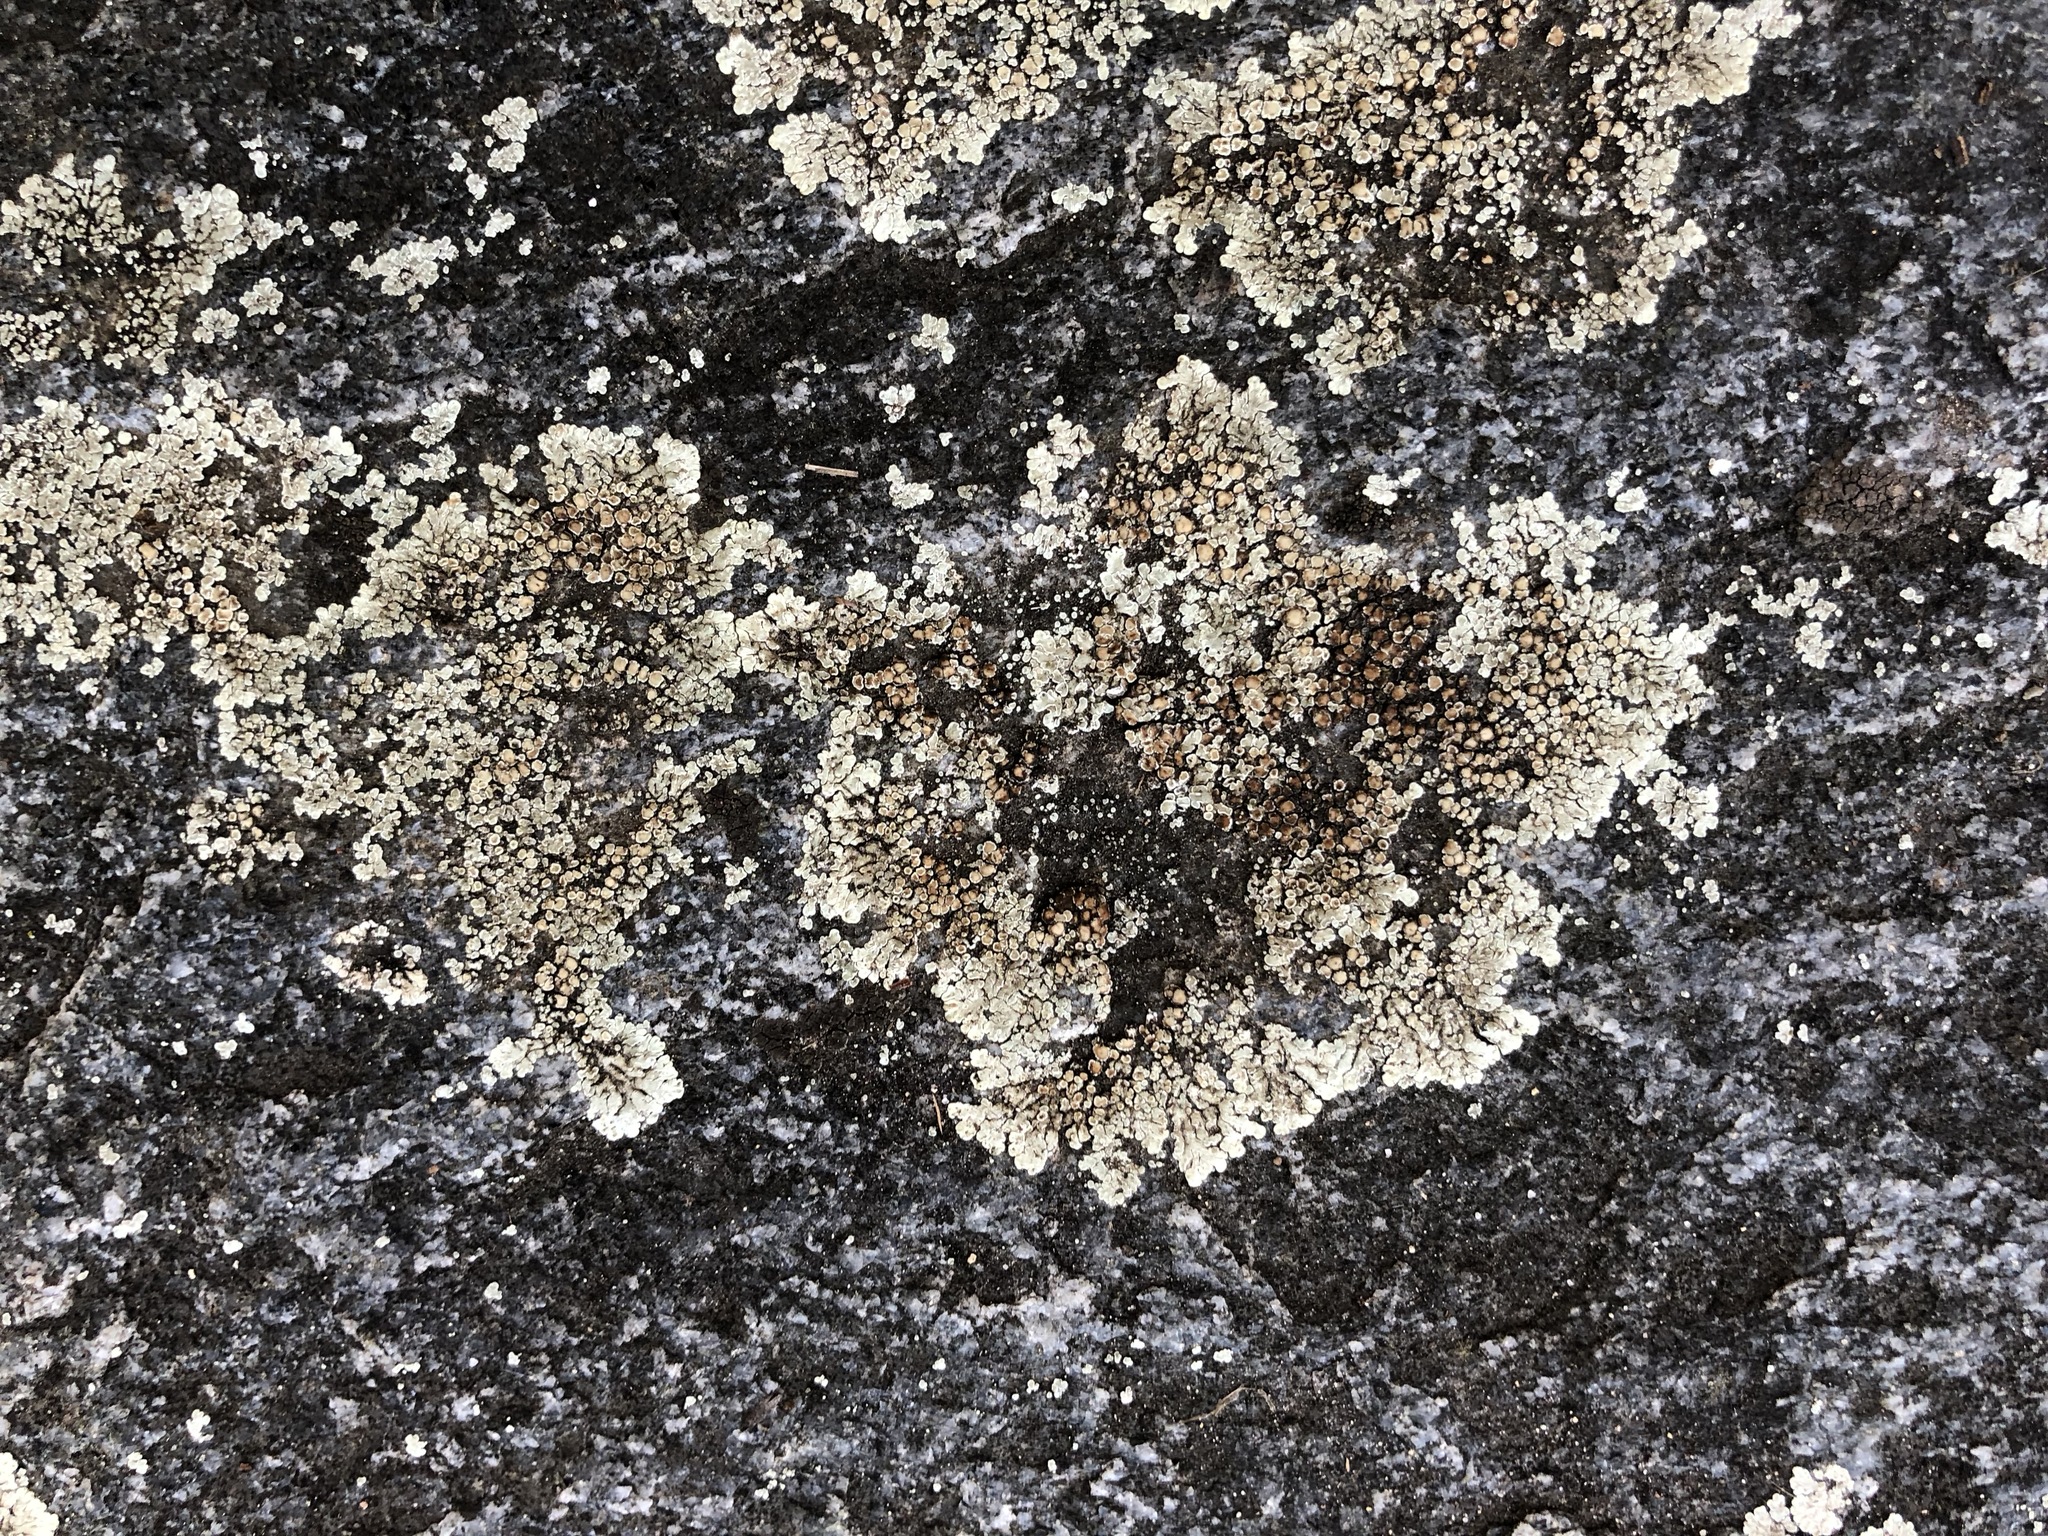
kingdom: Fungi
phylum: Ascomycota
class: Lecanoromycetes
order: Lecanorales
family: Lecanoraceae
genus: Protoparmeliopsis
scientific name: Protoparmeliopsis muralis
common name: Stonewall rim lichen
